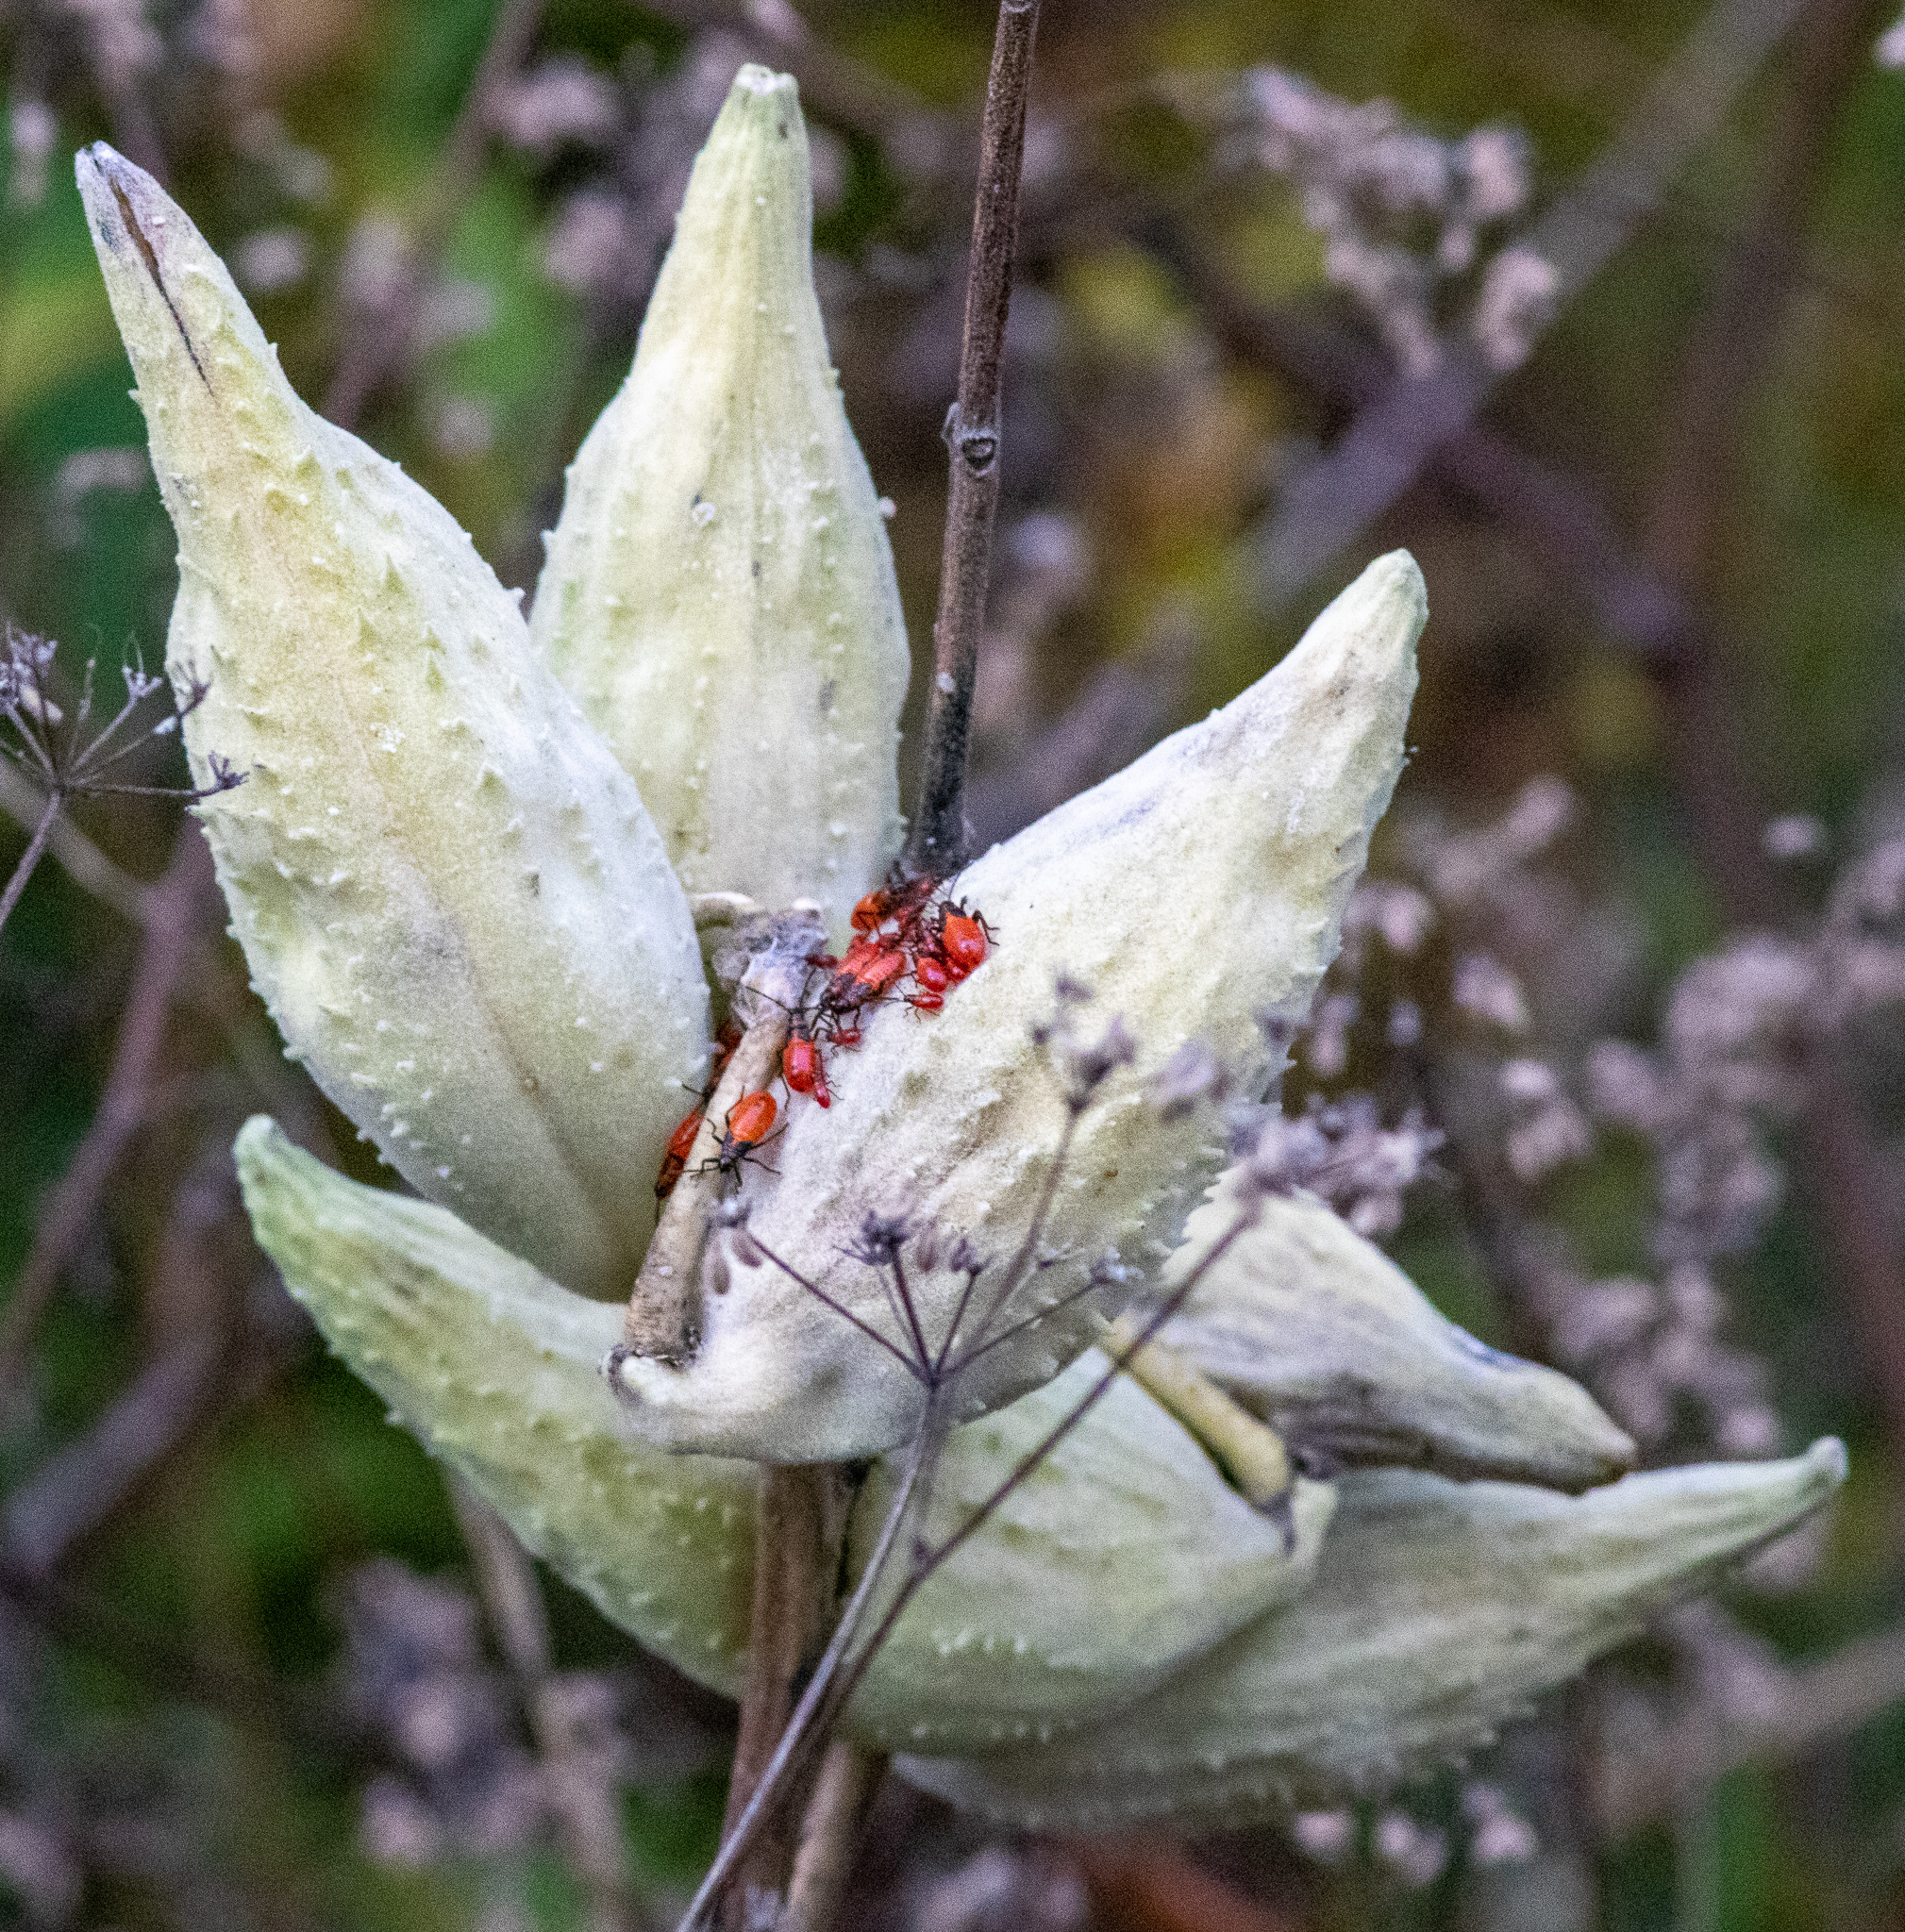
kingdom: Plantae
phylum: Tracheophyta
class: Magnoliopsida
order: Gentianales
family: Apocynaceae
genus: Asclepias
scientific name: Asclepias syriaca
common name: Common milkweed
